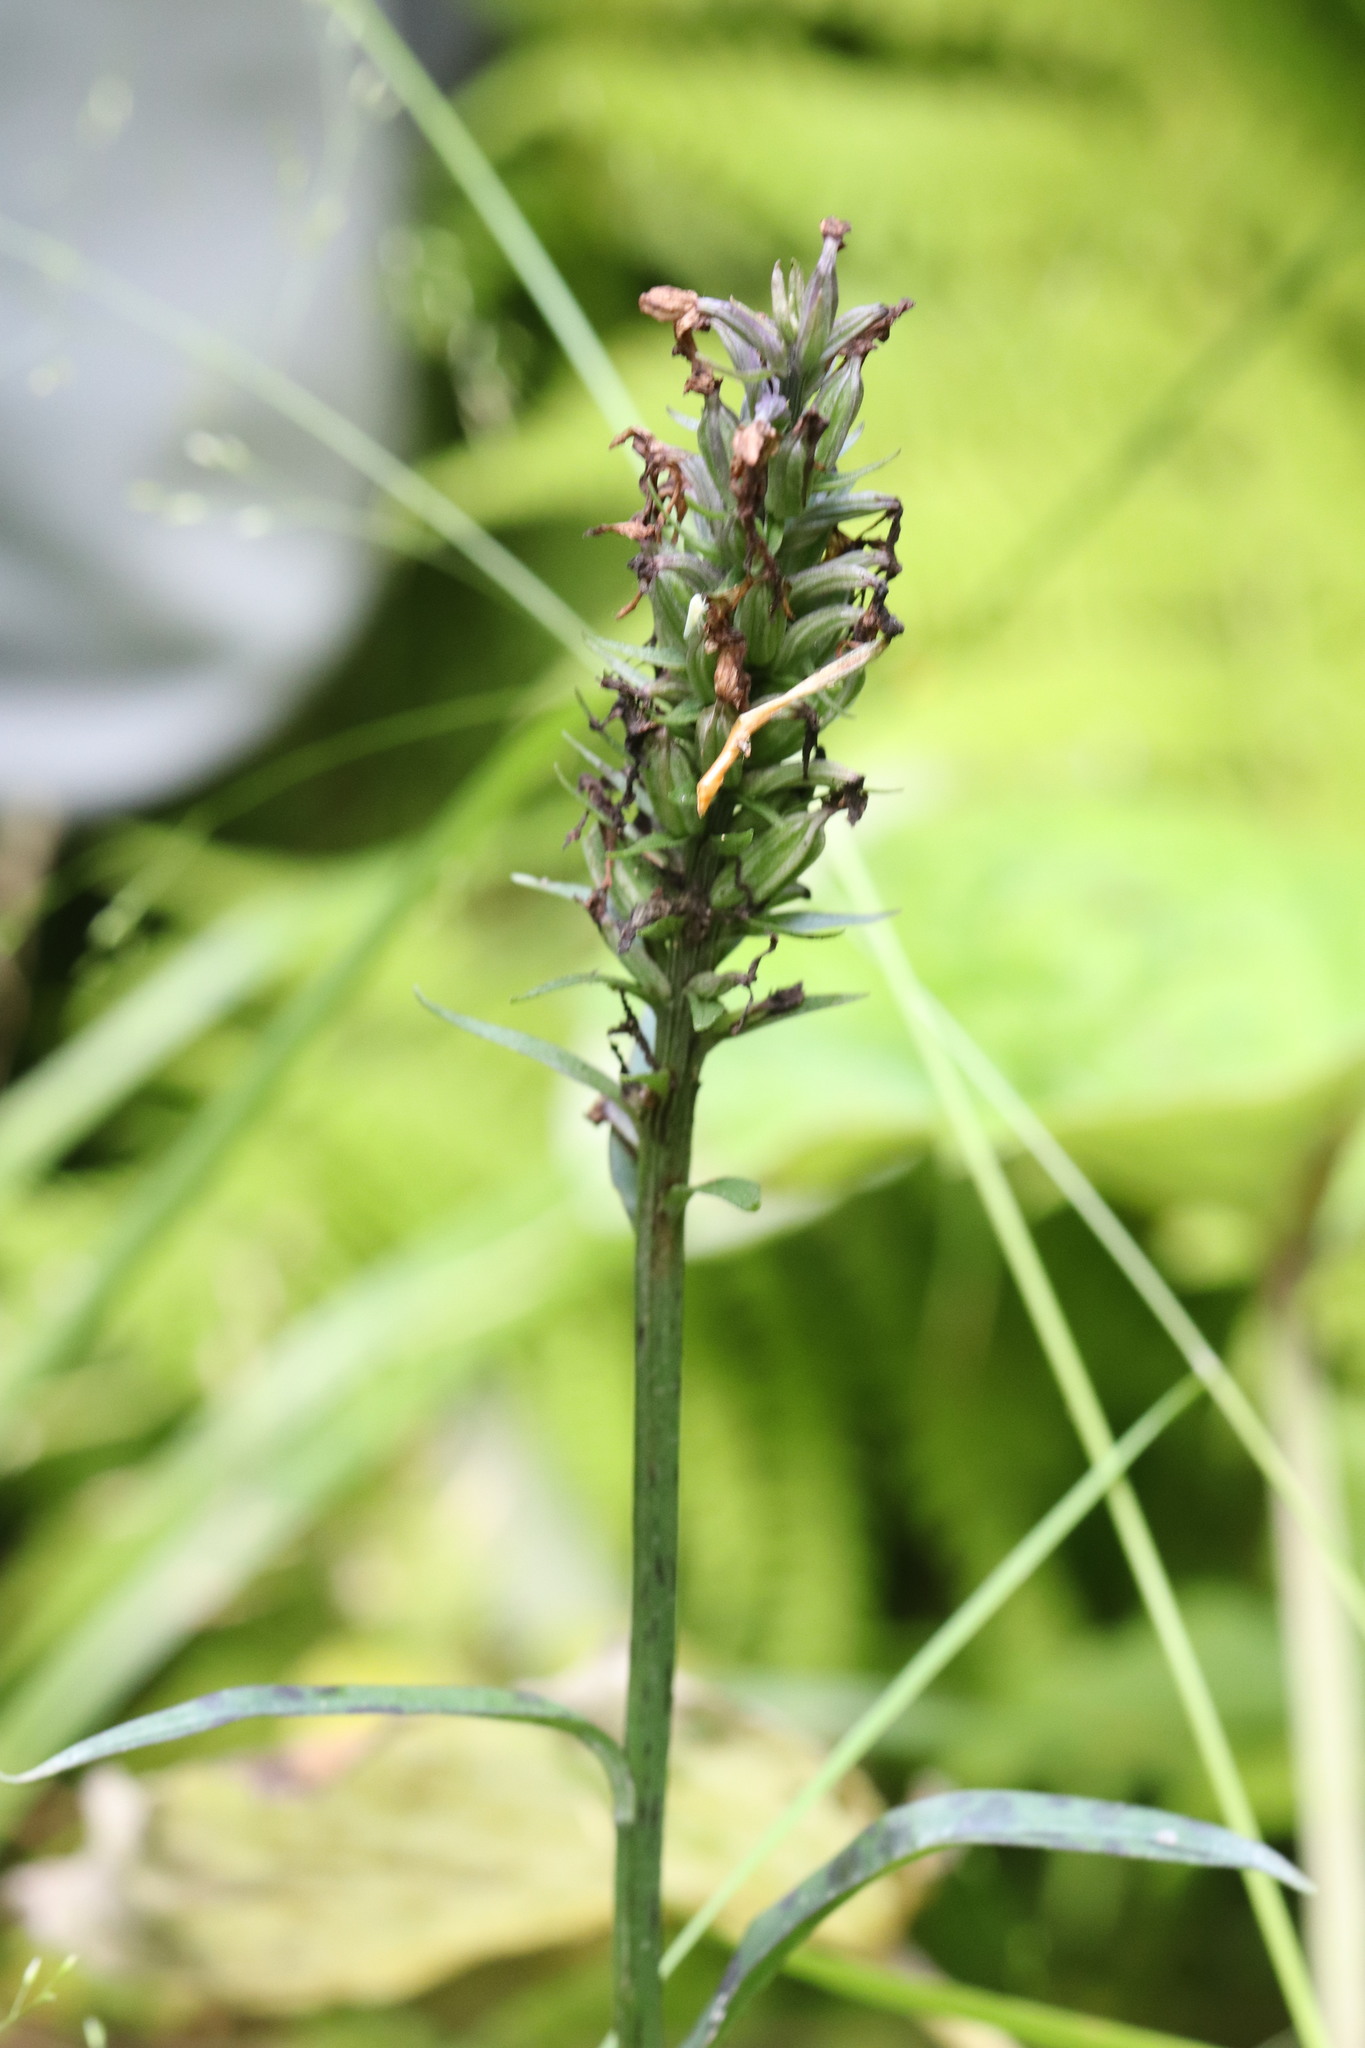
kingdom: Plantae
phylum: Tracheophyta
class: Liliopsida
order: Asparagales
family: Orchidaceae
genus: Dactylorhiza
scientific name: Dactylorhiza maculata
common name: Heath spotted-orchid
